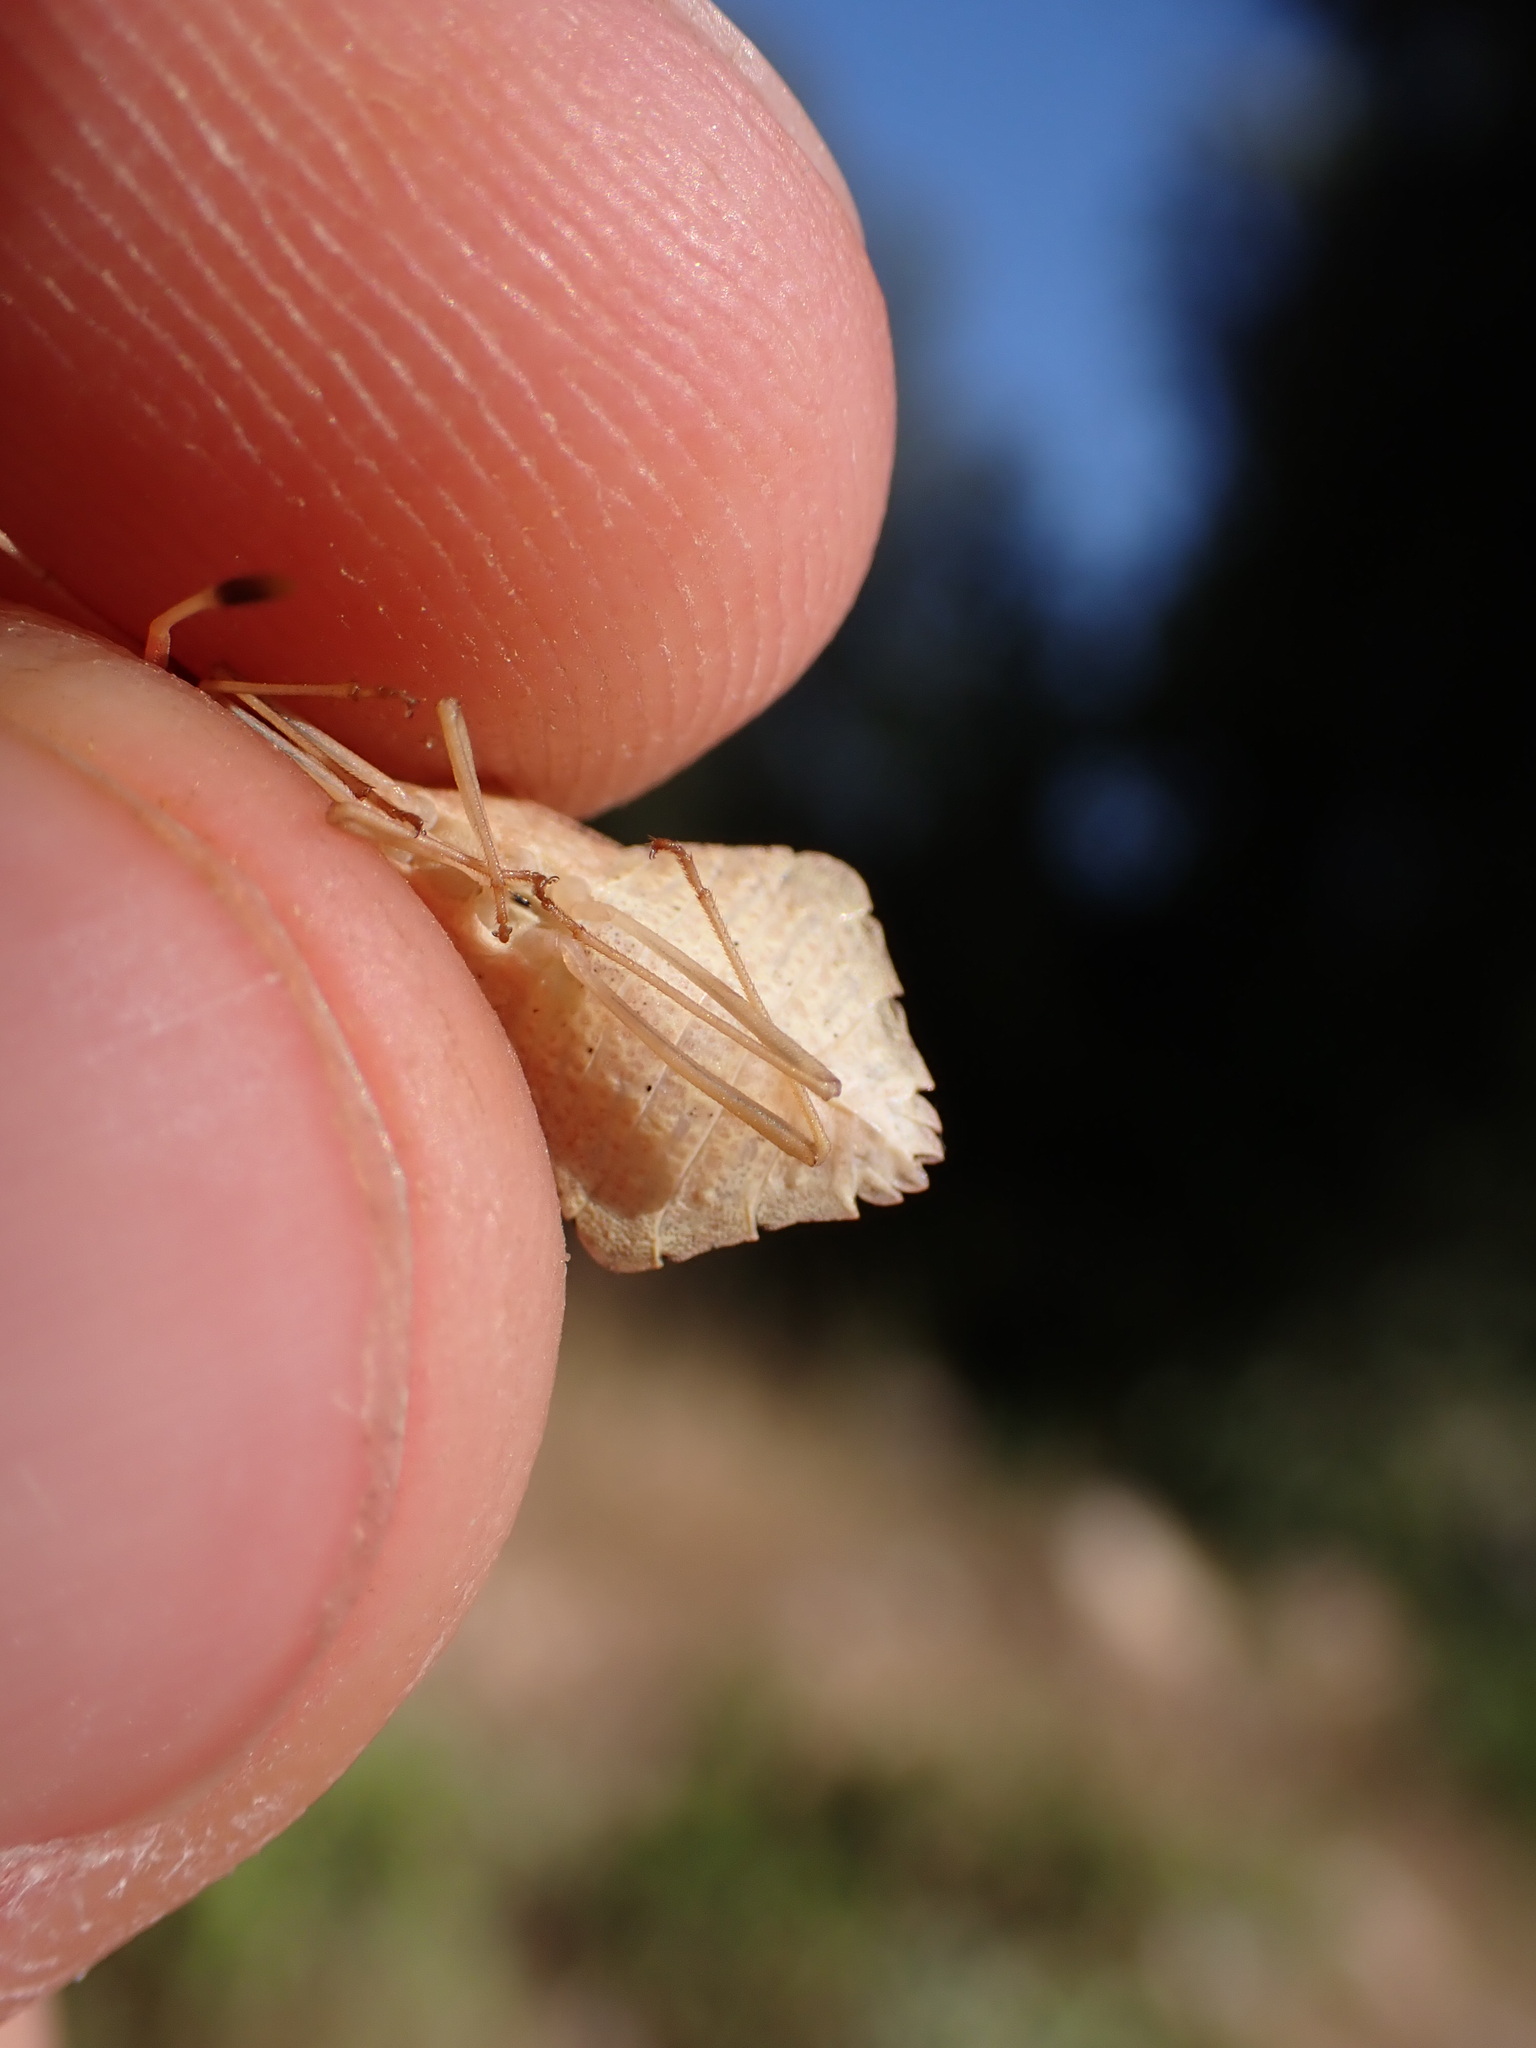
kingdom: Animalia
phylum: Arthropoda
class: Insecta
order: Hemiptera
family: Coreidae
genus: Syromastus
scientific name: Syromastus rhombeus
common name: Rhombic leatherbug
